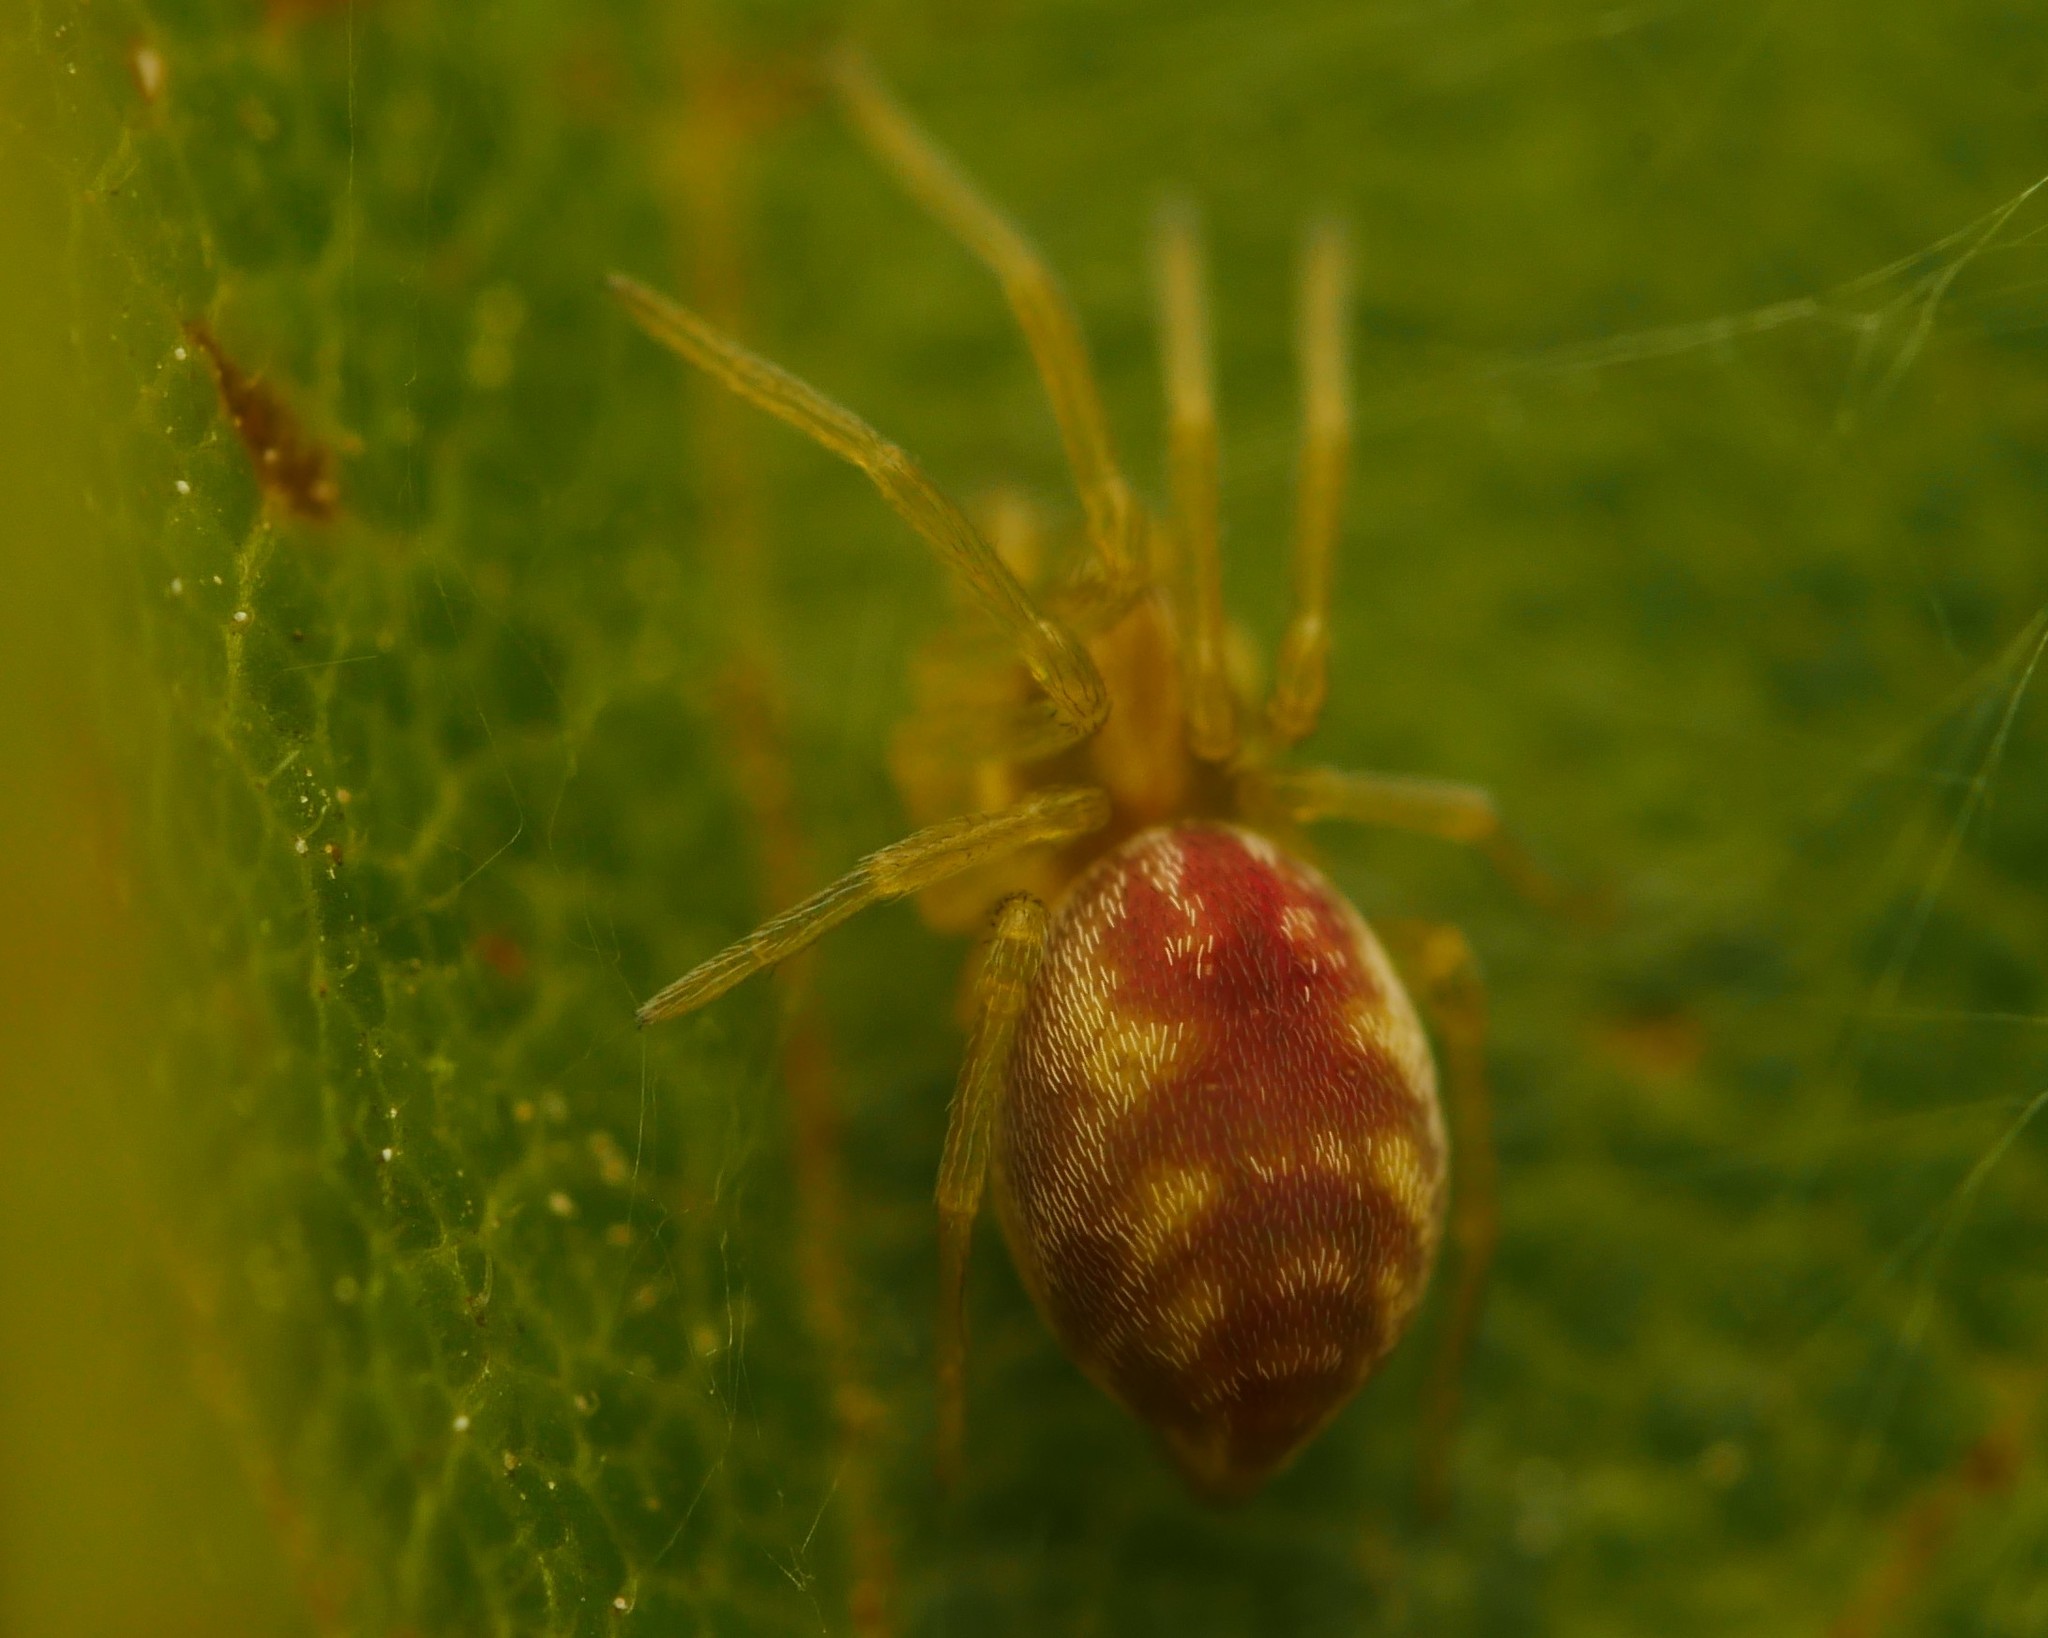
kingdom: Animalia
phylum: Arthropoda
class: Arachnida
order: Araneae
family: Dictynidae
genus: Nigma
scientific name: Nigma flavescens
